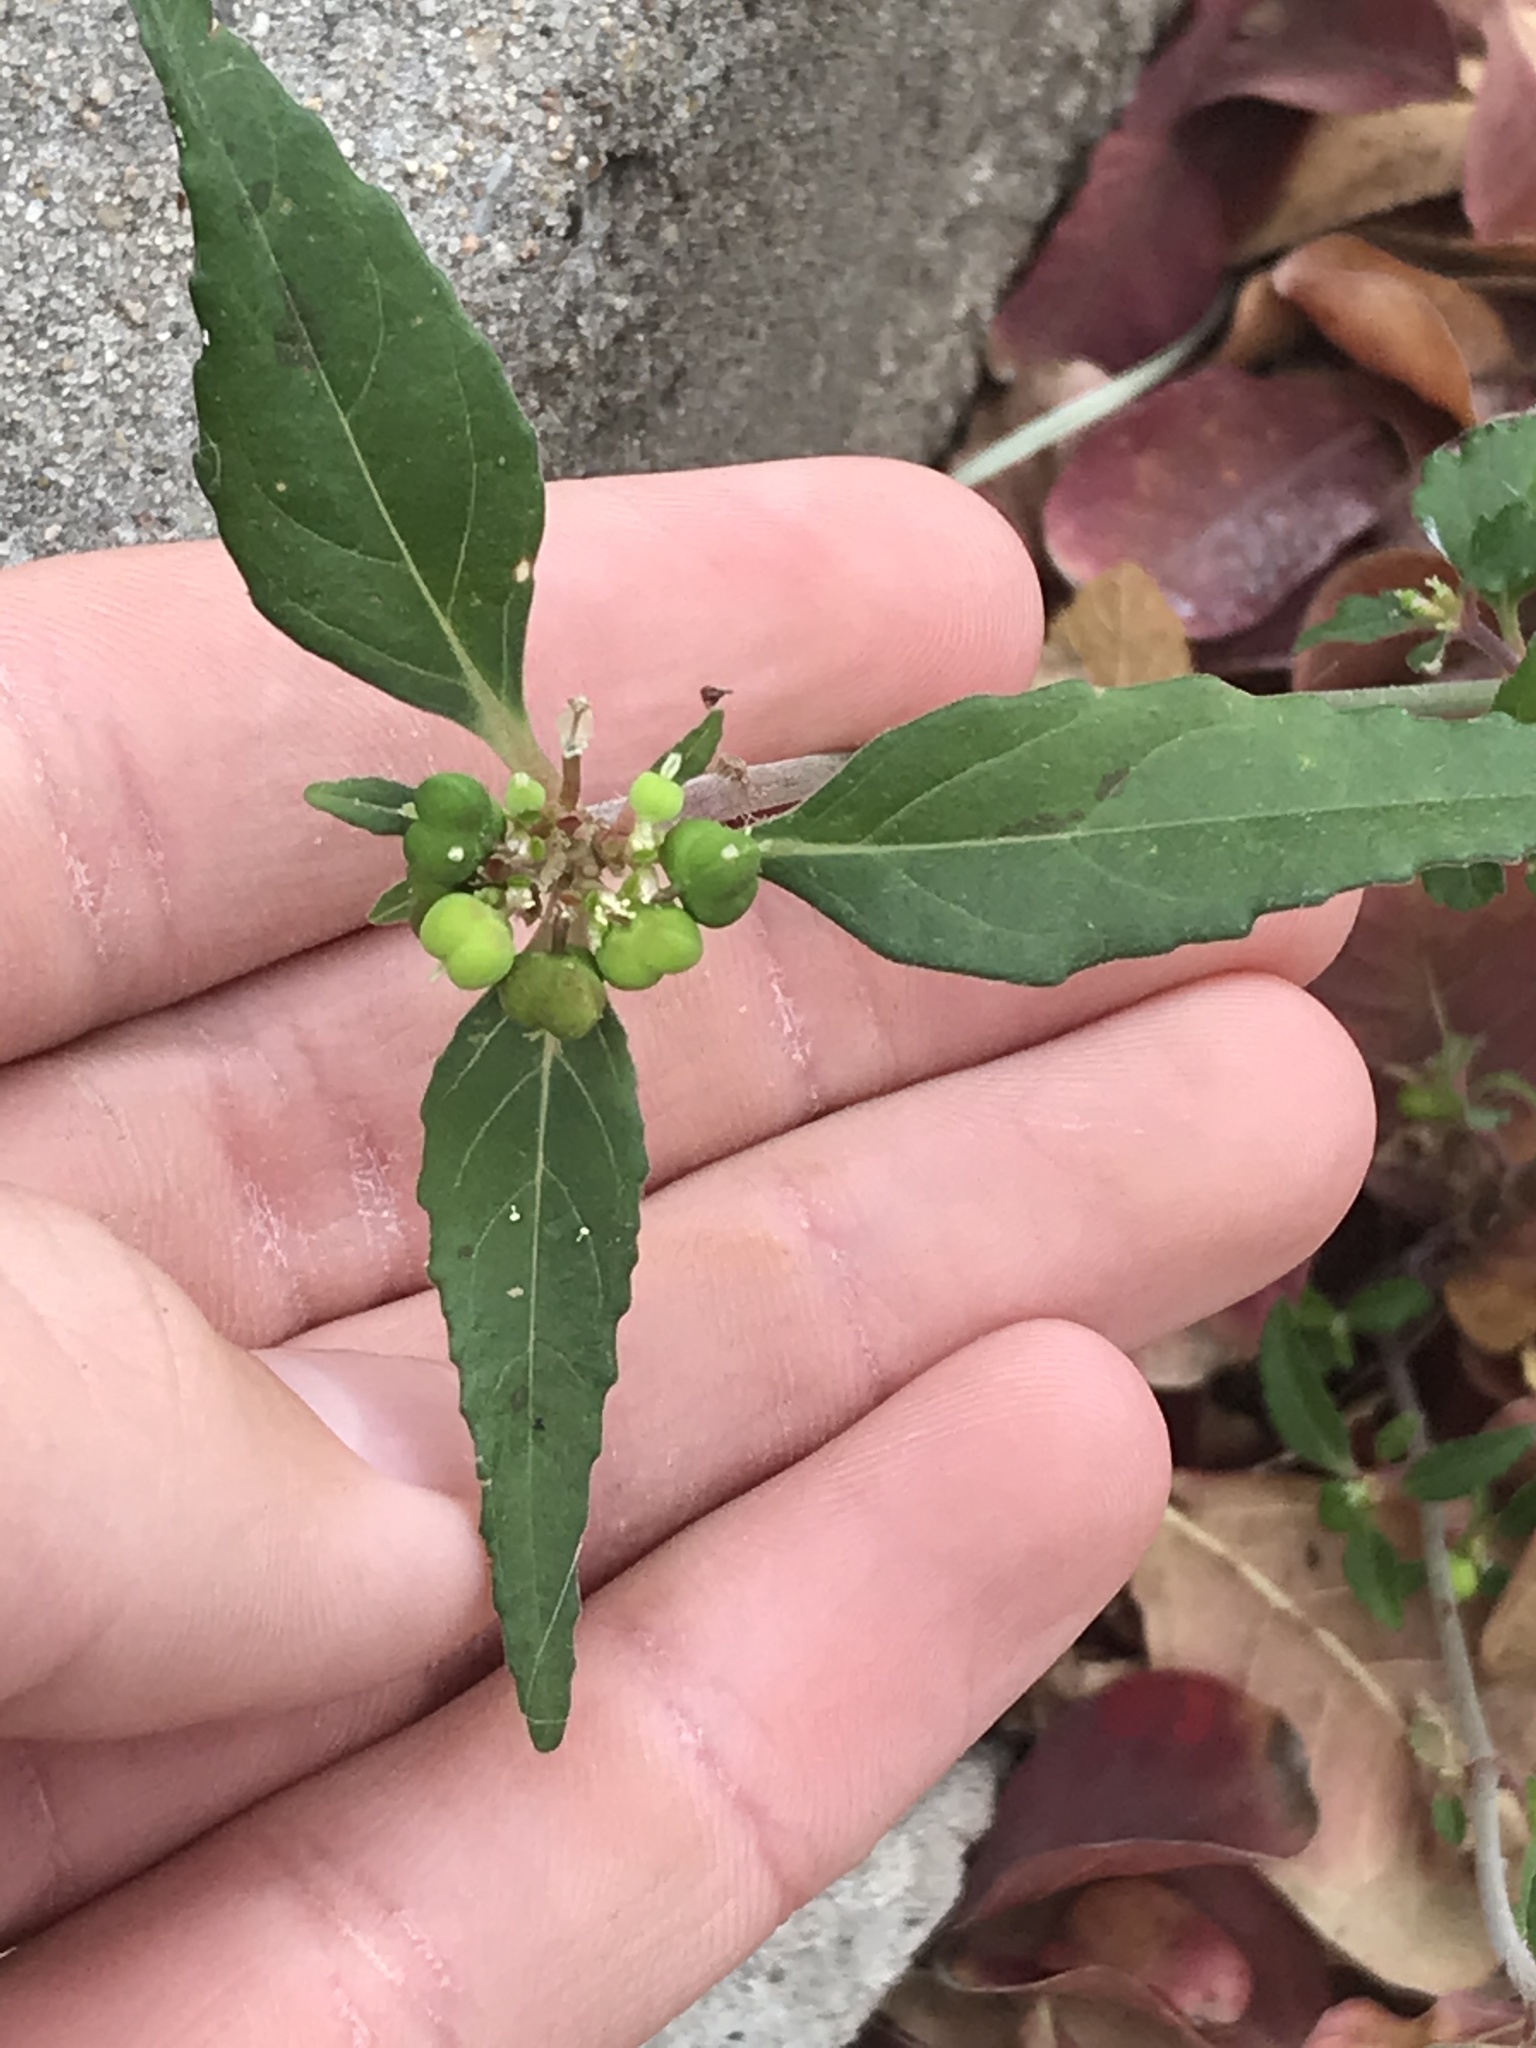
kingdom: Plantae
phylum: Tracheophyta
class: Magnoliopsida
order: Malpighiales
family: Euphorbiaceae
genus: Euphorbia
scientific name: Euphorbia dentata
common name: Dentate spurge
